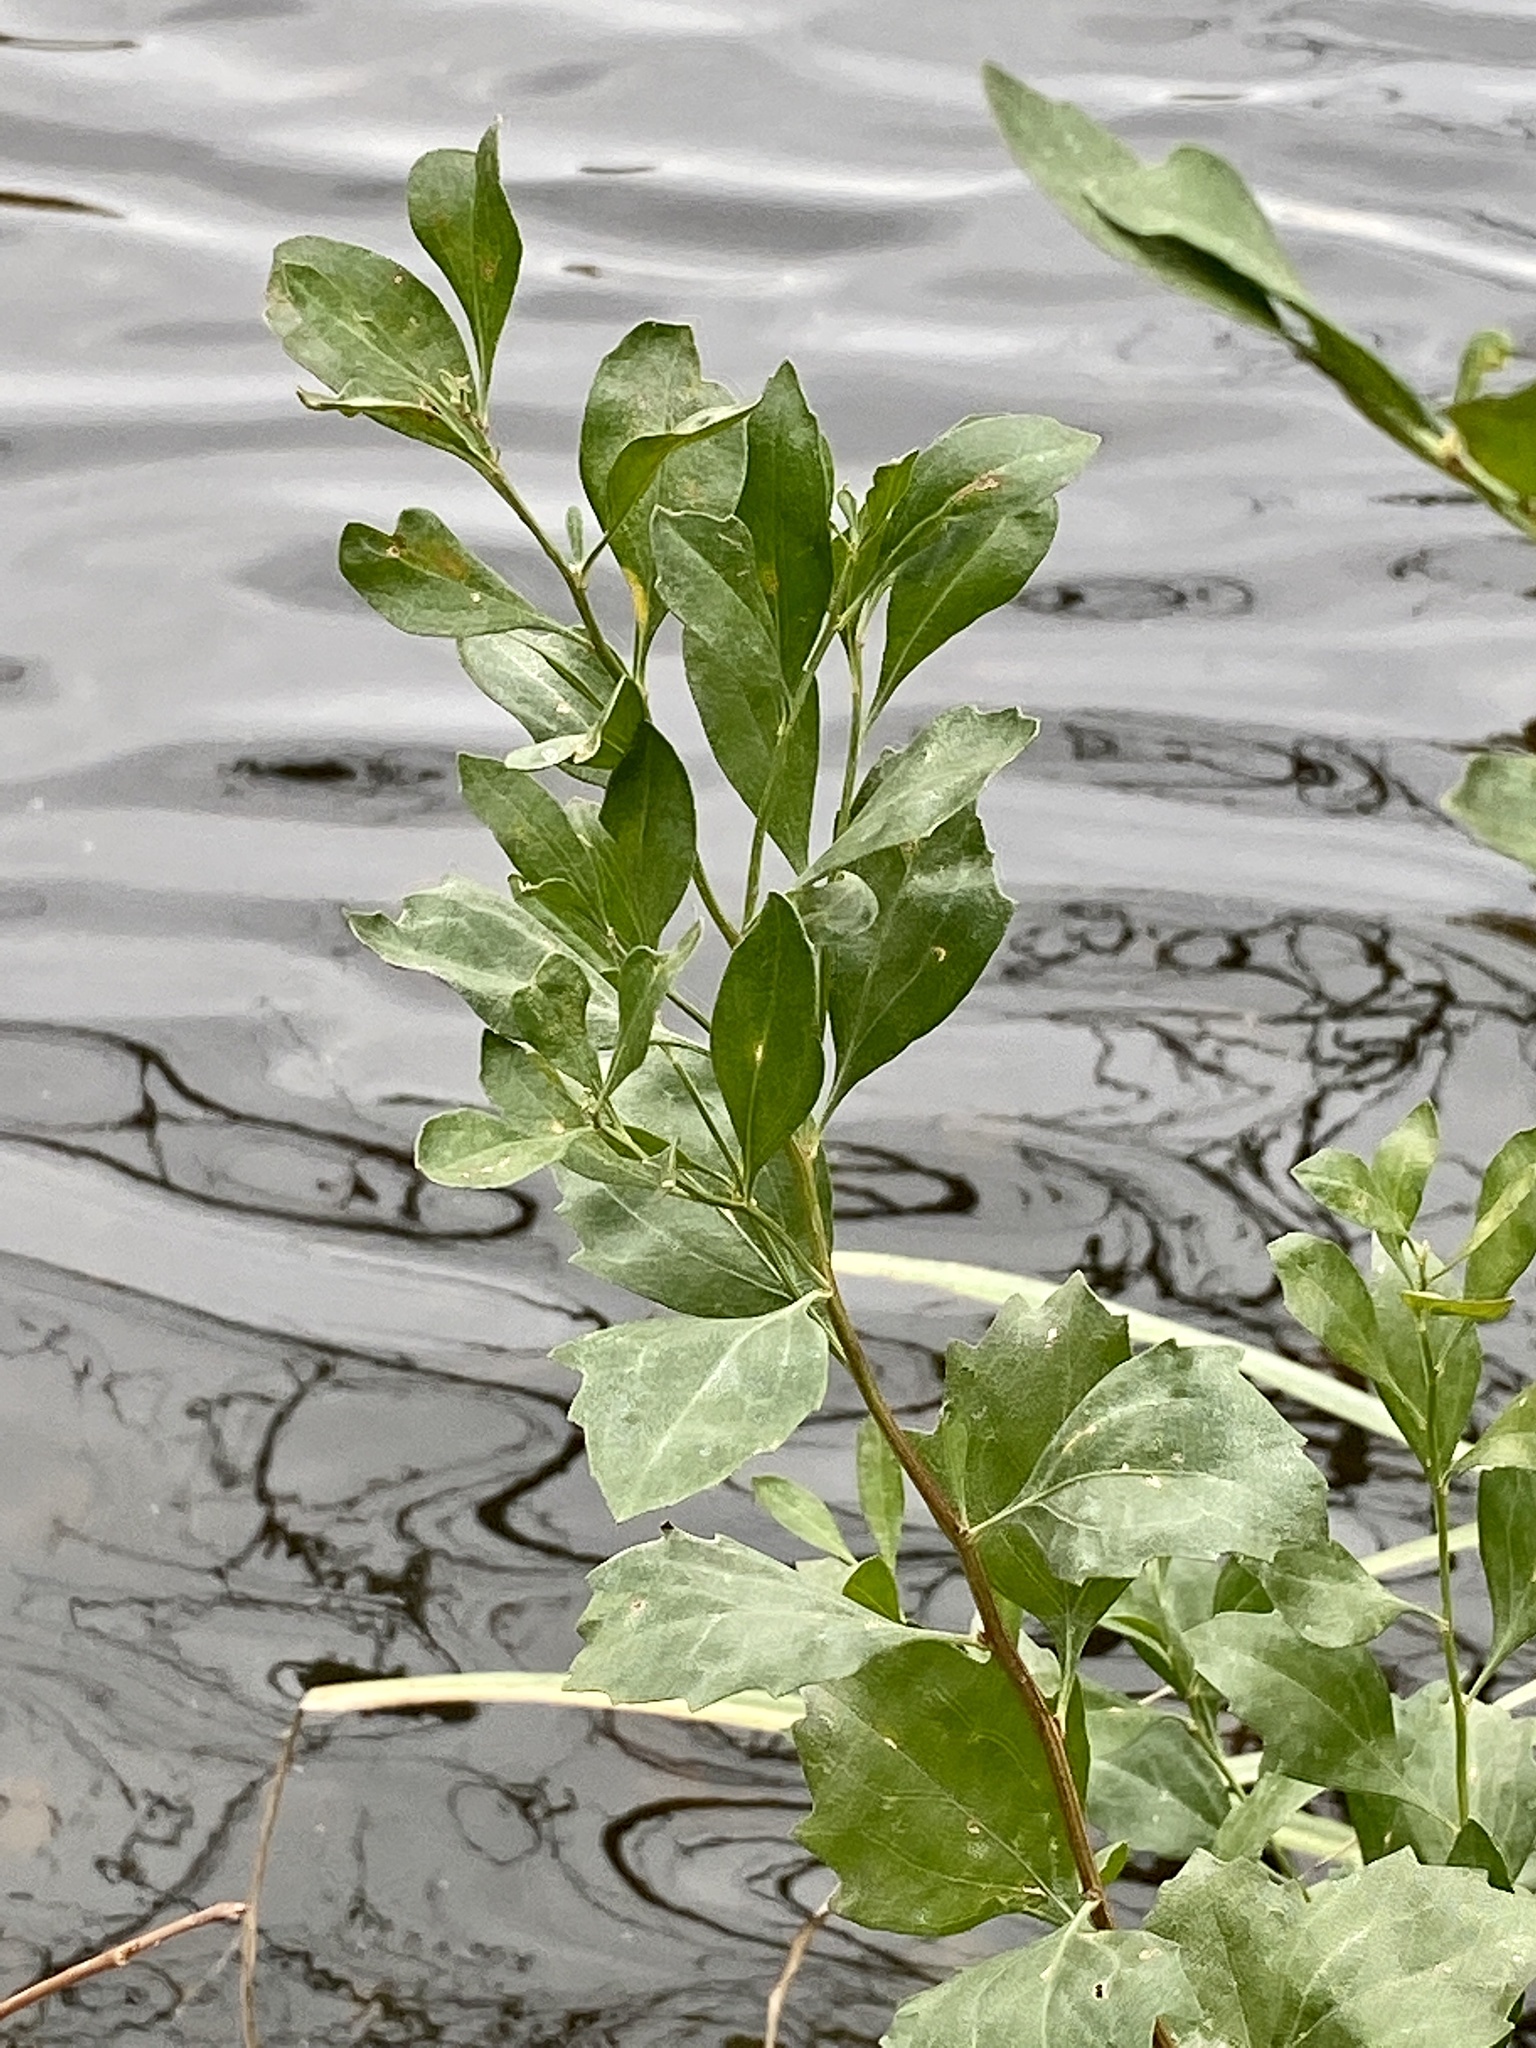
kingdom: Plantae
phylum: Tracheophyta
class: Magnoliopsida
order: Asterales
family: Asteraceae
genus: Baccharis
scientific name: Baccharis halimifolia
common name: Eastern baccharis
